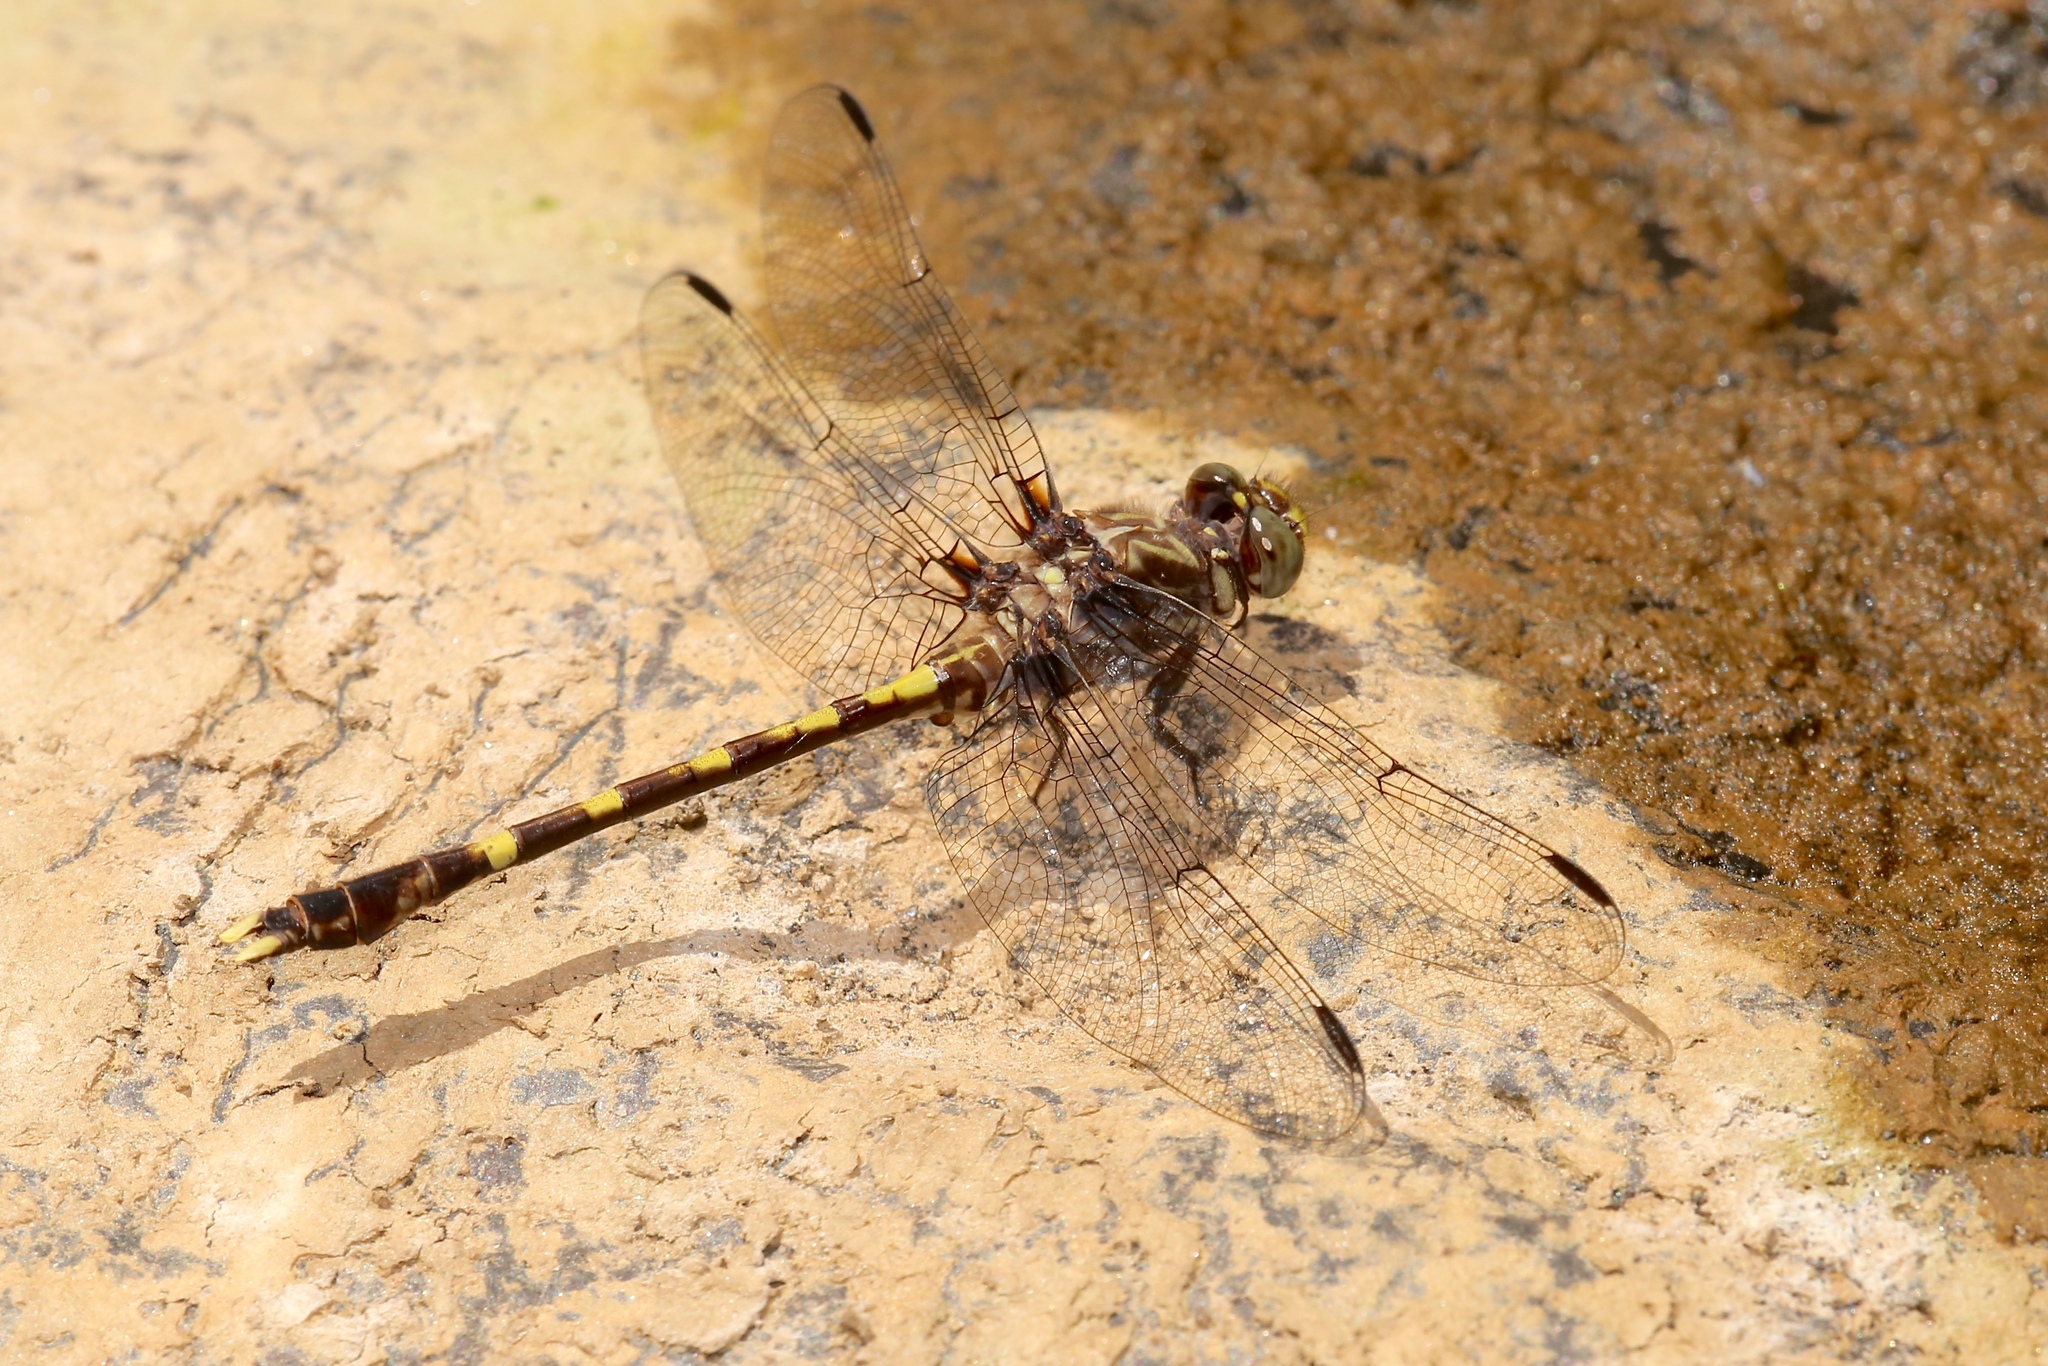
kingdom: Animalia
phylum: Arthropoda
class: Insecta
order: Odonata
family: Gomphidae
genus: Progomphus
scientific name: Progomphus obscurus
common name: Common sanddragon
